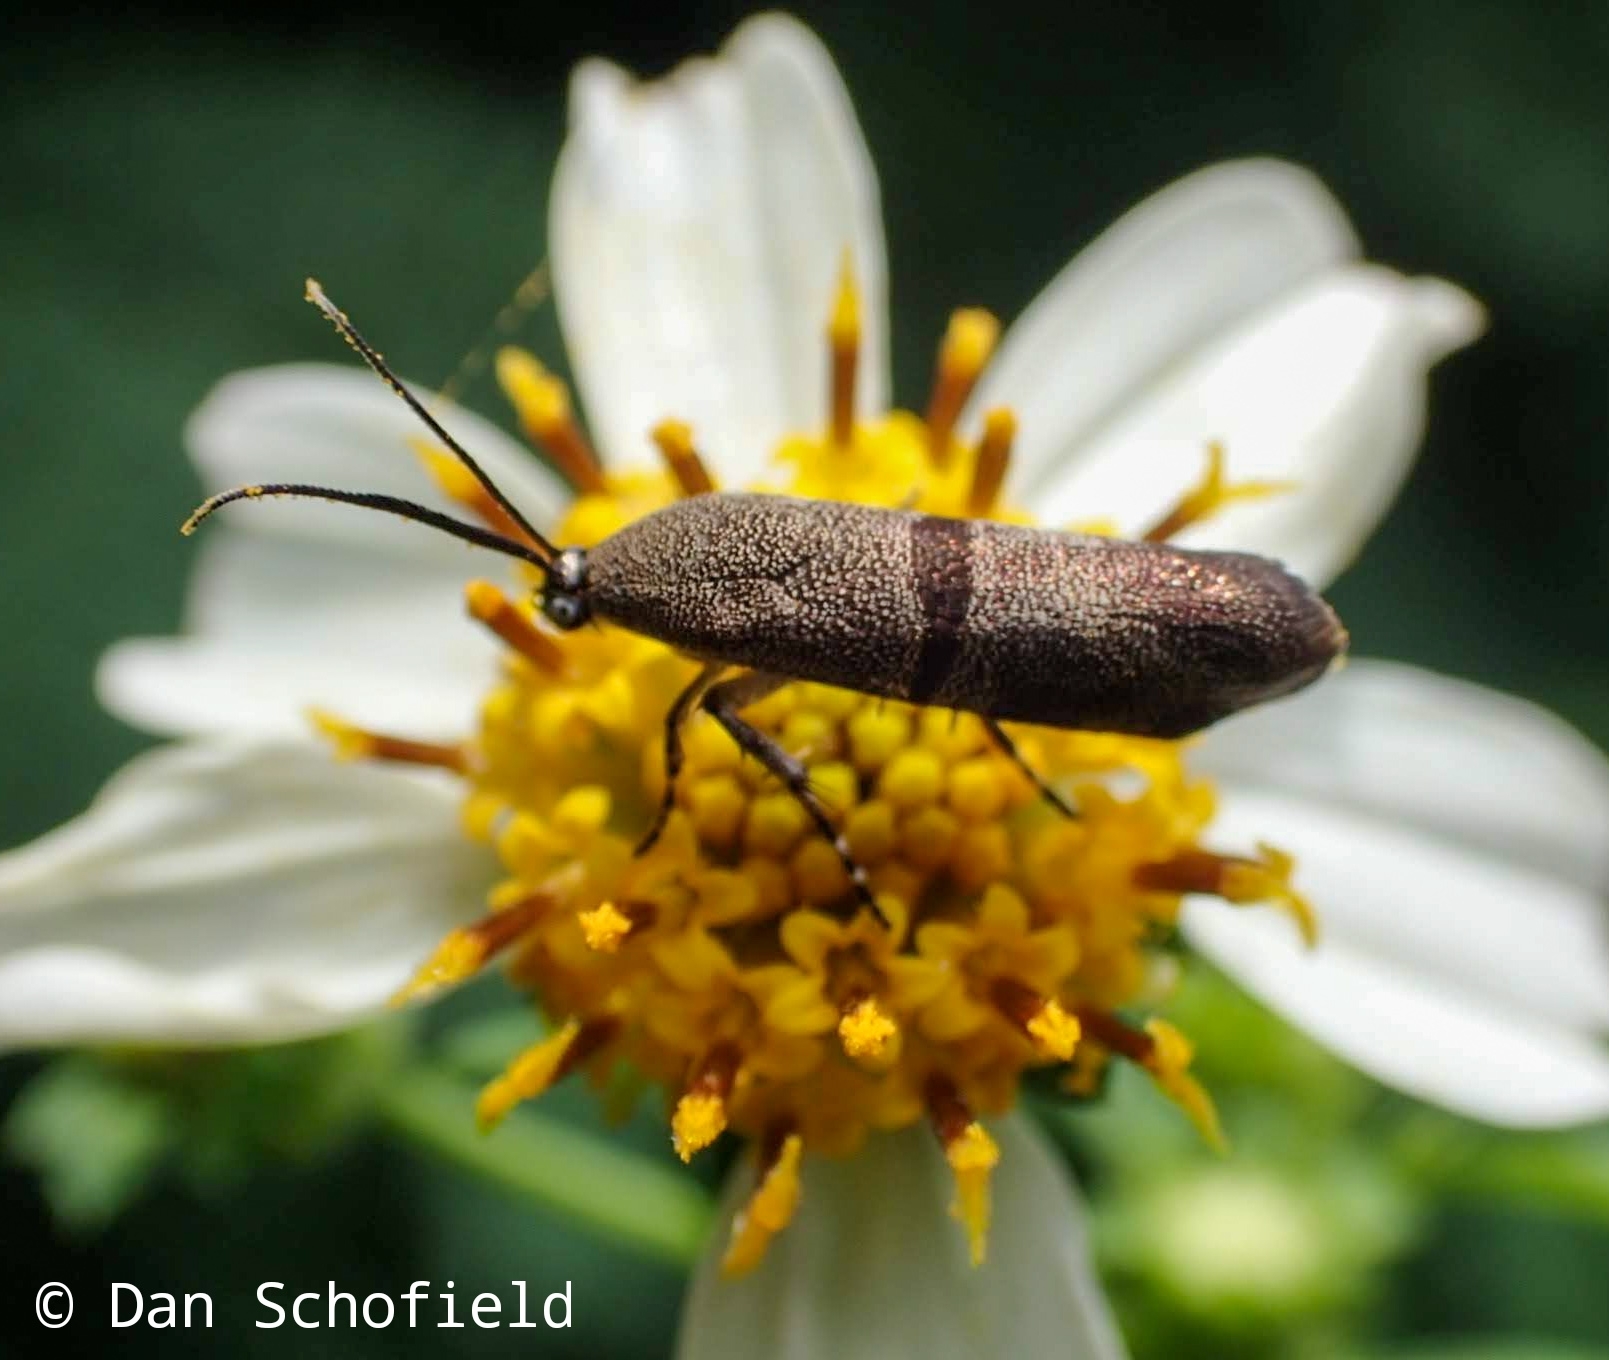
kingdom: Animalia
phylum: Arthropoda
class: Insecta
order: Lepidoptera
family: Brachodidae
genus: Phycodes
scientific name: Phycodes minor
